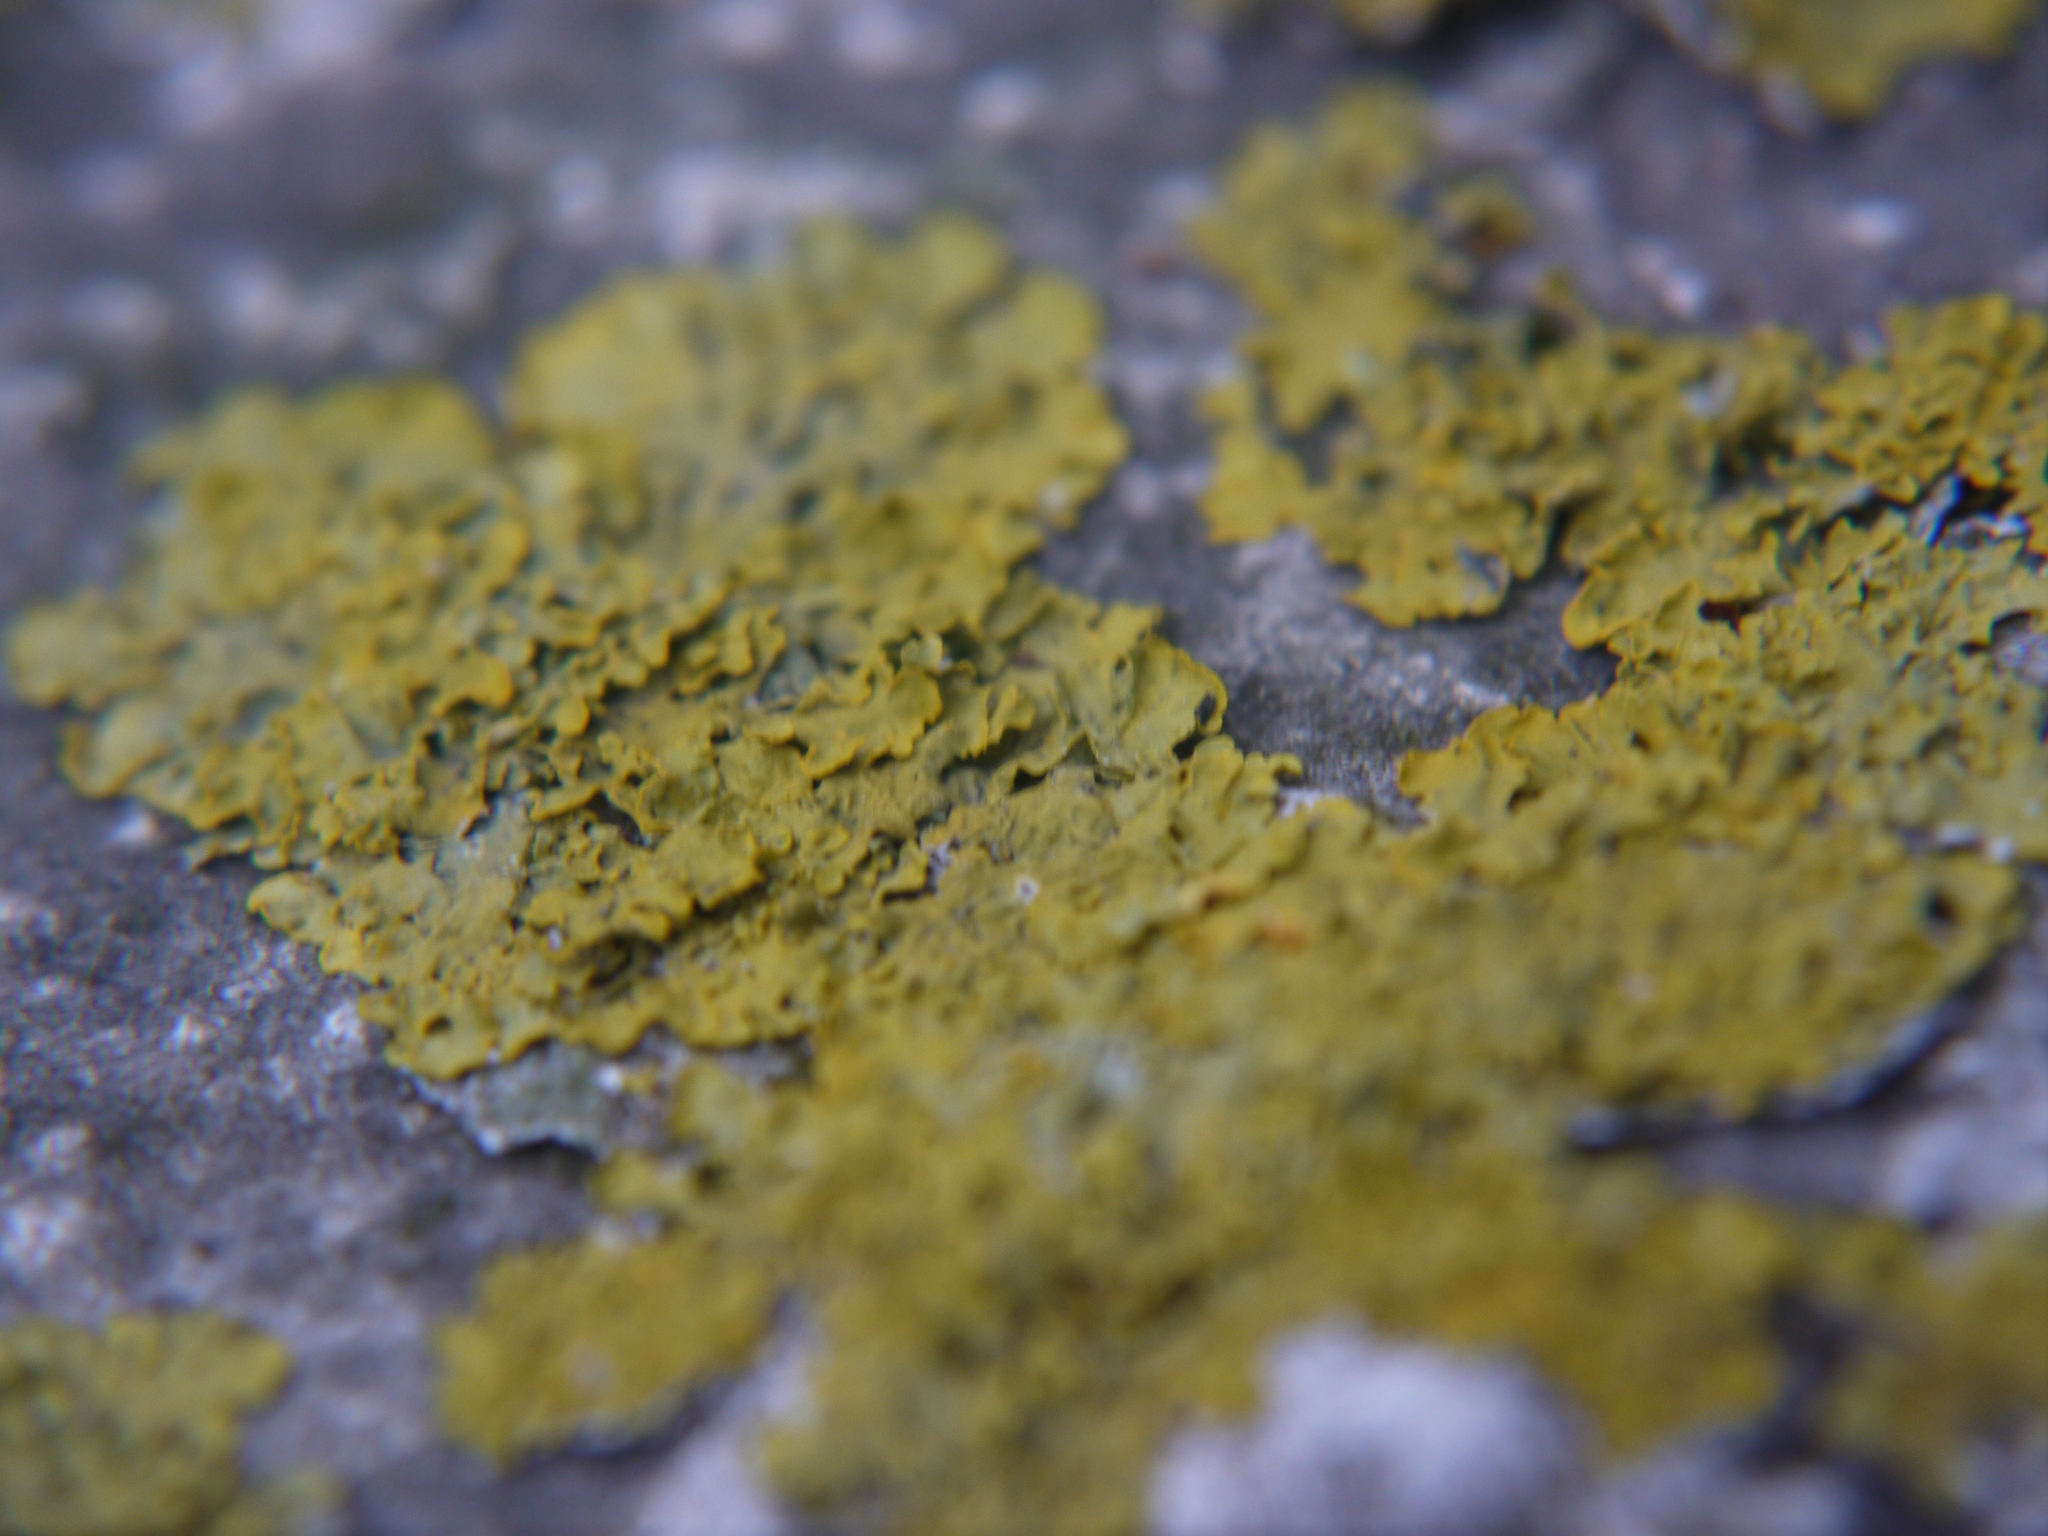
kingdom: Fungi
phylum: Ascomycota
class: Lecanoromycetes
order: Teloschistales
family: Teloschistaceae
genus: Xanthoria
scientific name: Xanthoria parietina
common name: Common orange lichen
